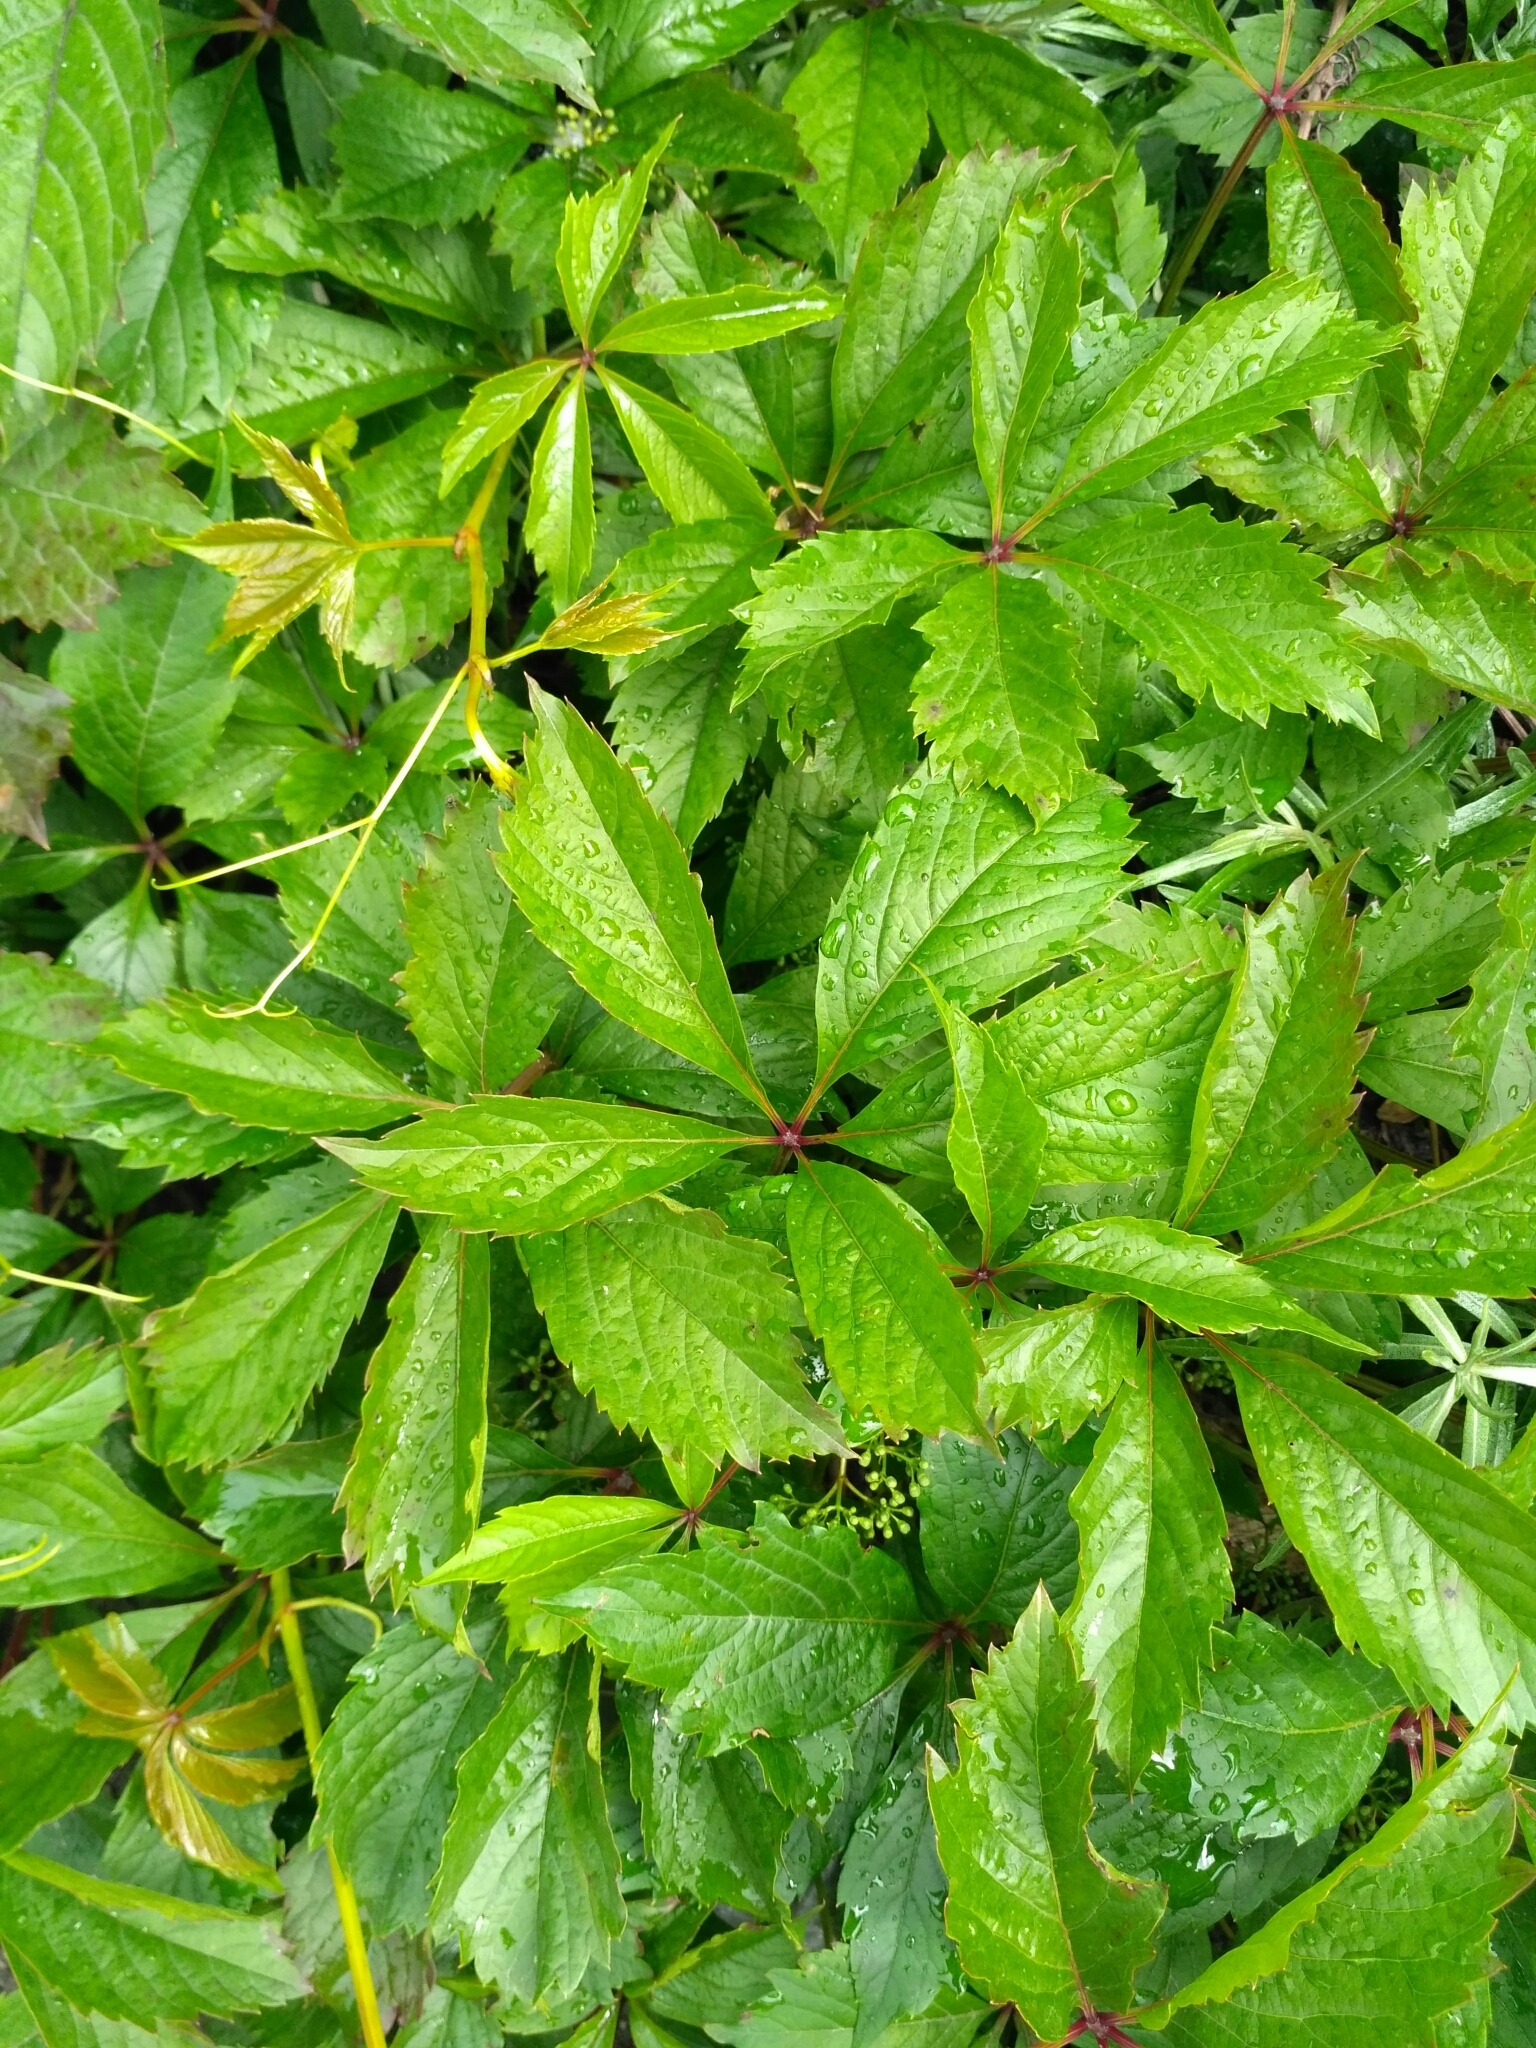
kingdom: Plantae
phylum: Tracheophyta
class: Magnoliopsida
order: Vitales
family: Vitaceae
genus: Parthenocissus
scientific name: Parthenocissus inserta
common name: False virginia-creeper
